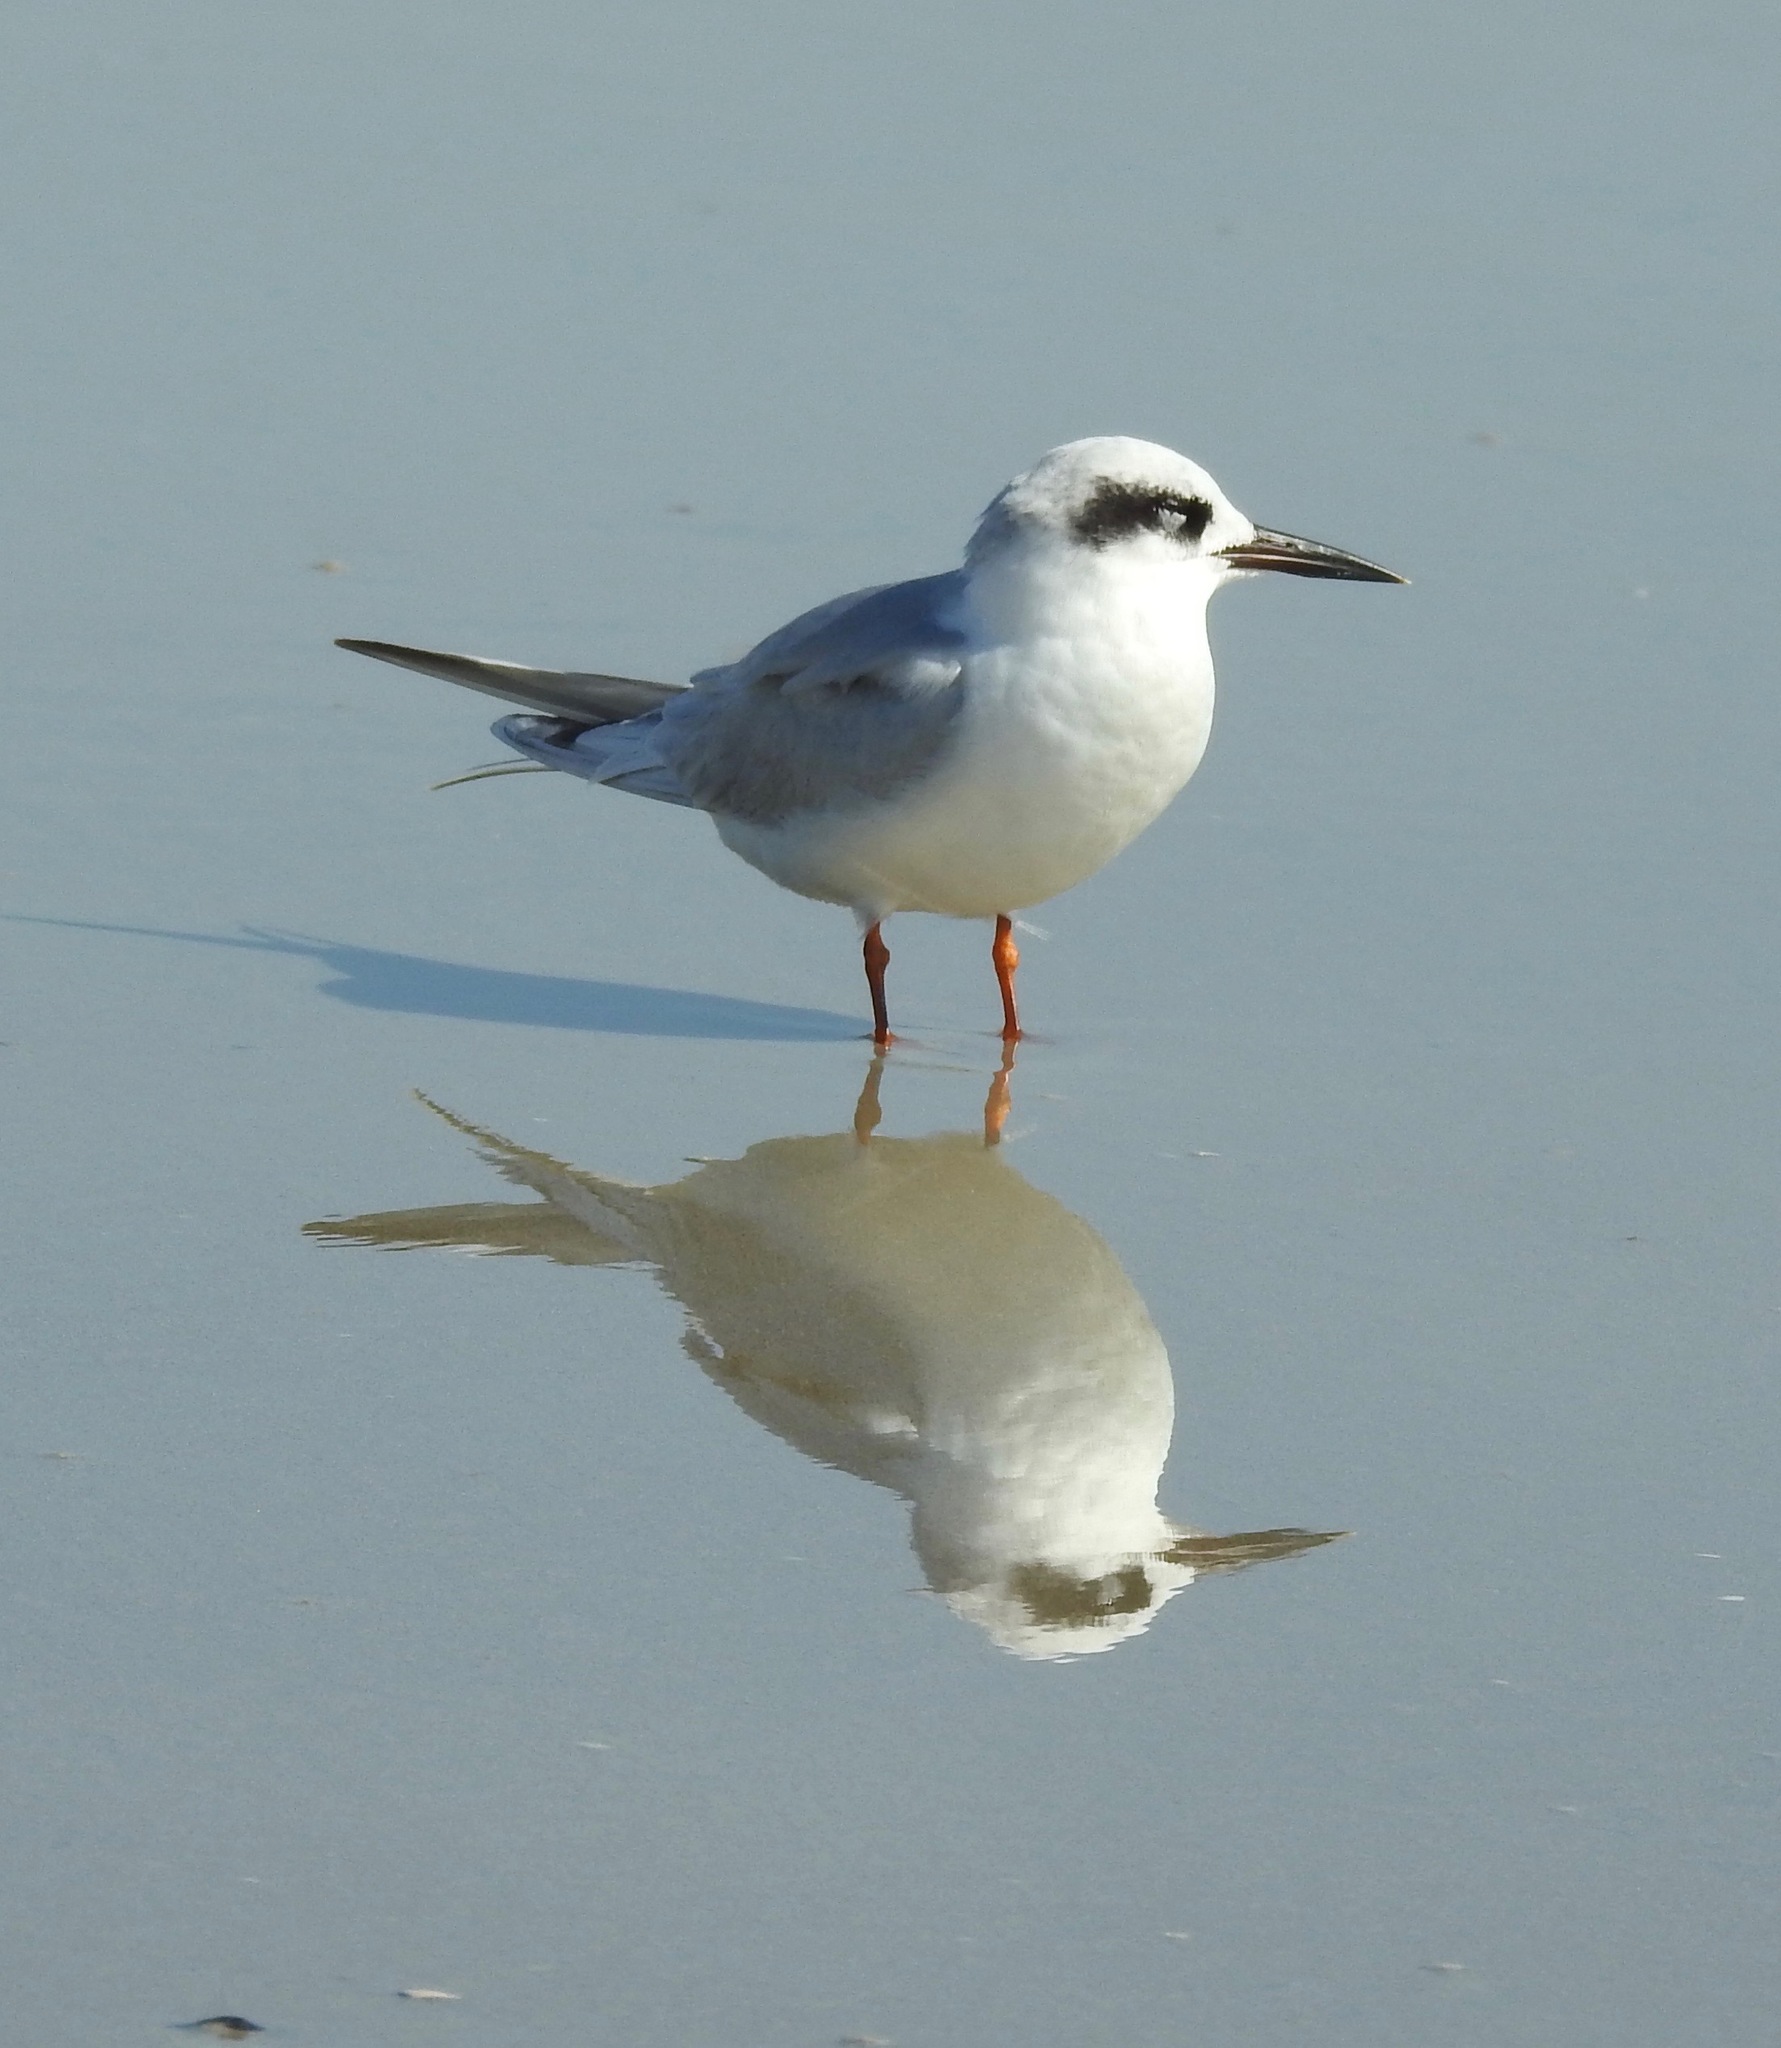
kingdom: Animalia
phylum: Chordata
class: Aves
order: Charadriiformes
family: Laridae
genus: Sterna
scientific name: Sterna forsteri
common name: Forster's tern
